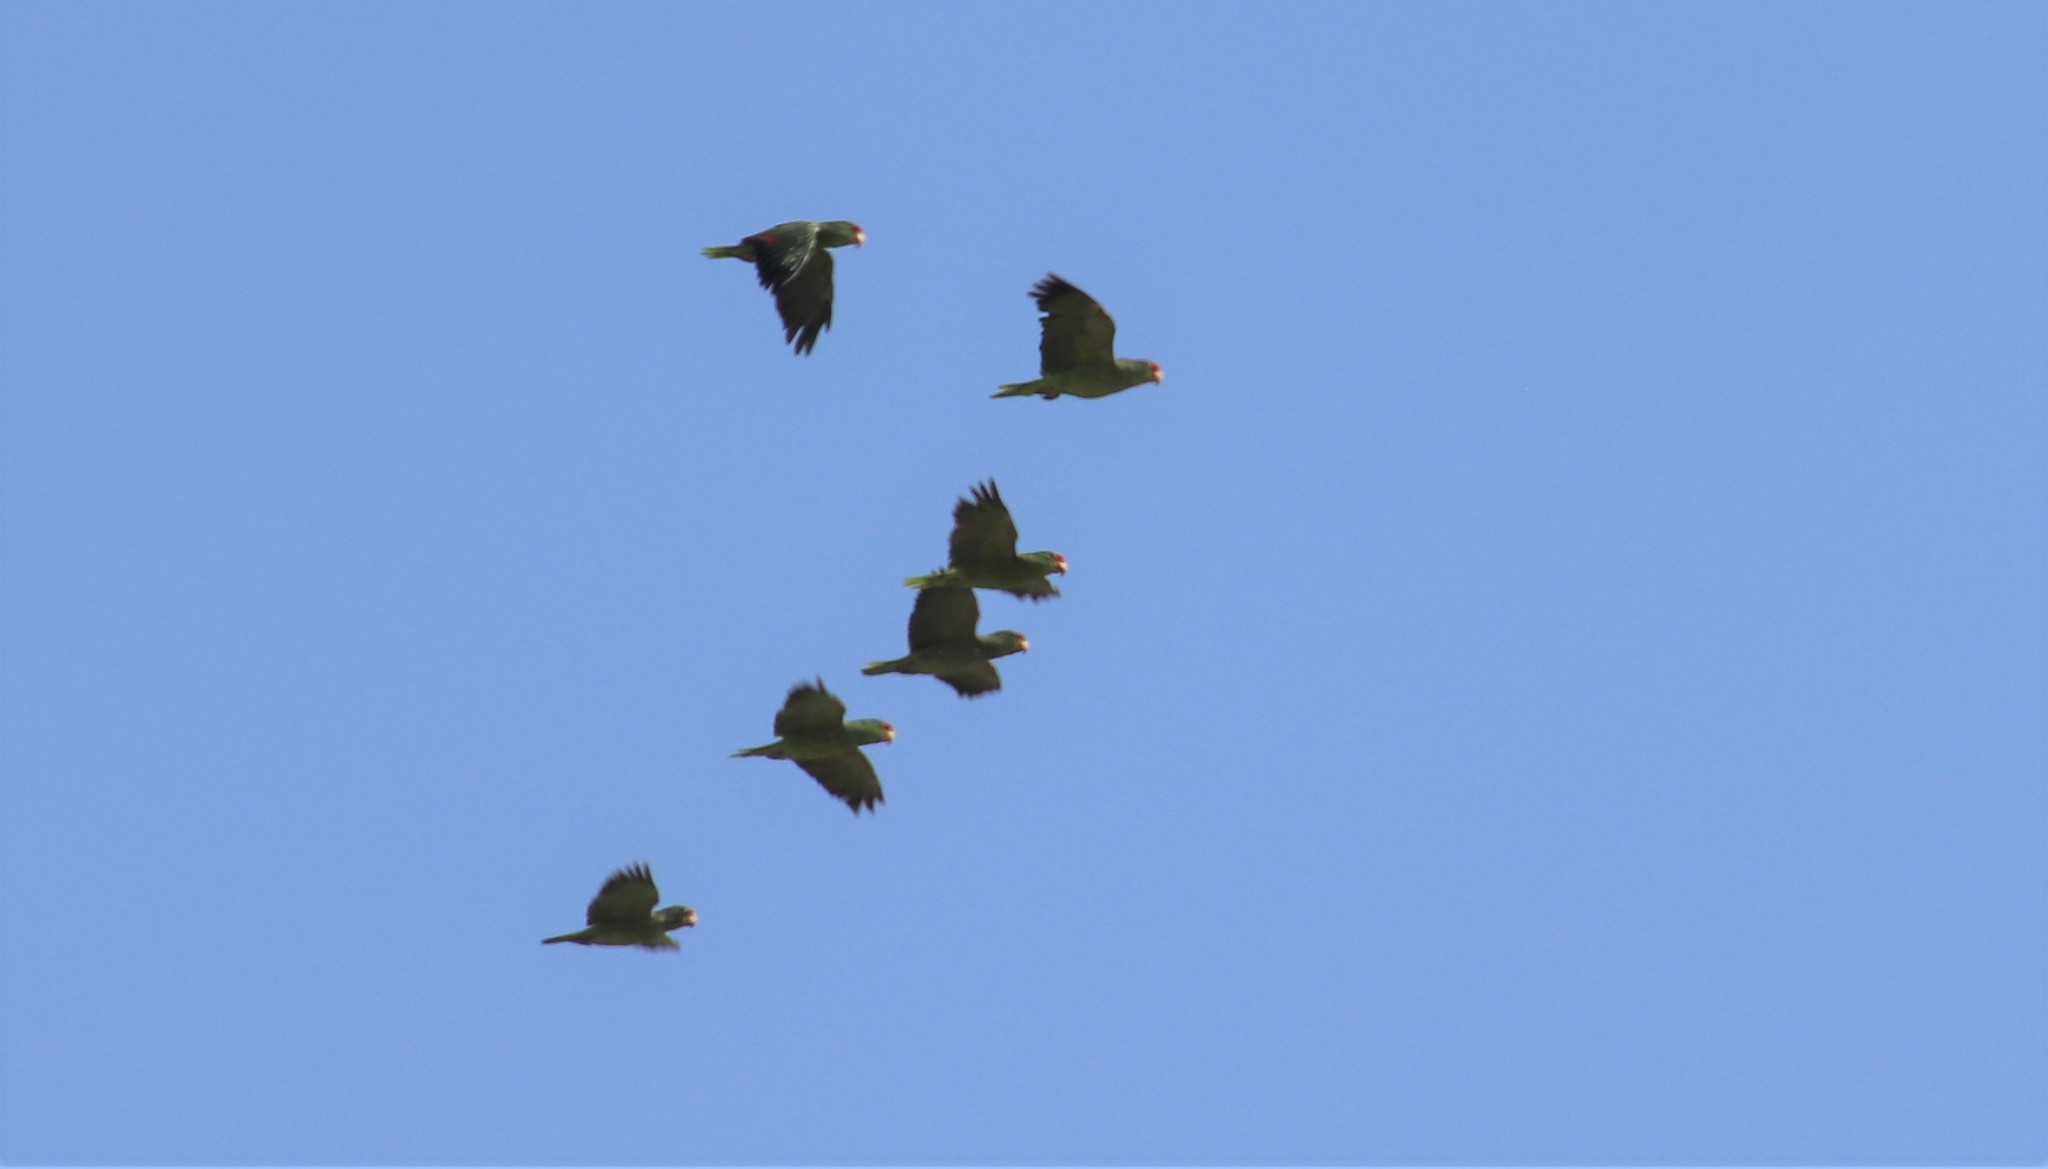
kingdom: Animalia
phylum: Chordata
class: Aves
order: Psittaciformes
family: Psittacidae
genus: Amazona
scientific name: Amazona viridigenalis
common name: Red-crowned amazon
